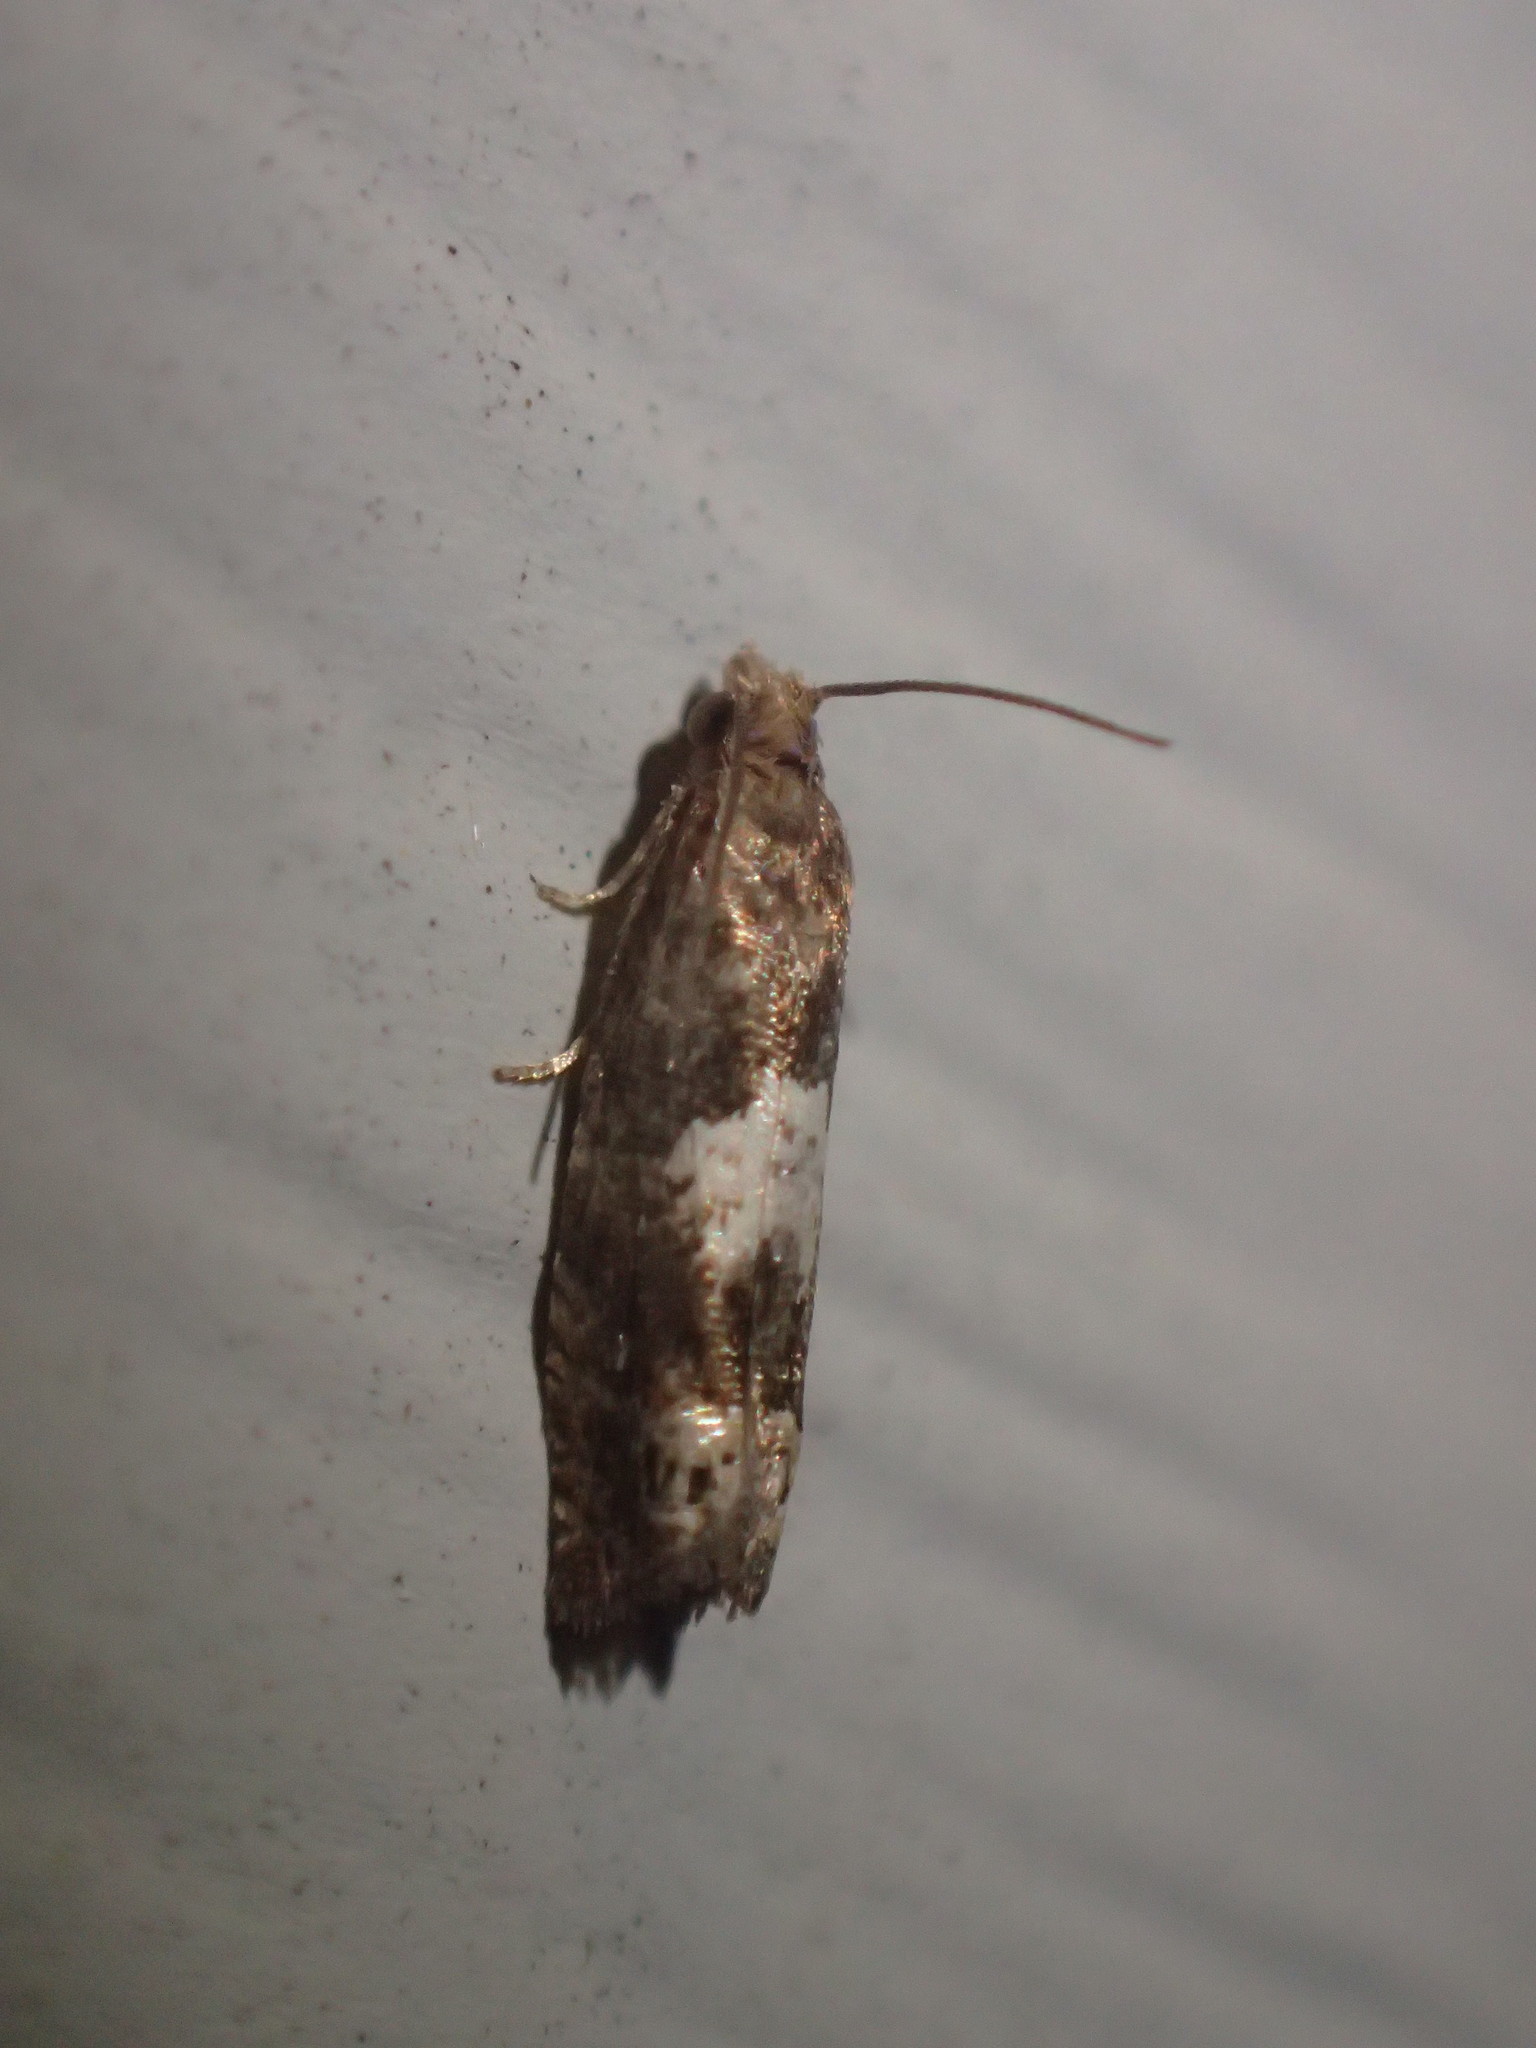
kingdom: Animalia
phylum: Arthropoda
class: Insecta
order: Lepidoptera
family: Tortricidae
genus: Eucosma
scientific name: Eucosma parmatana
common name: Aster eucosma moth
